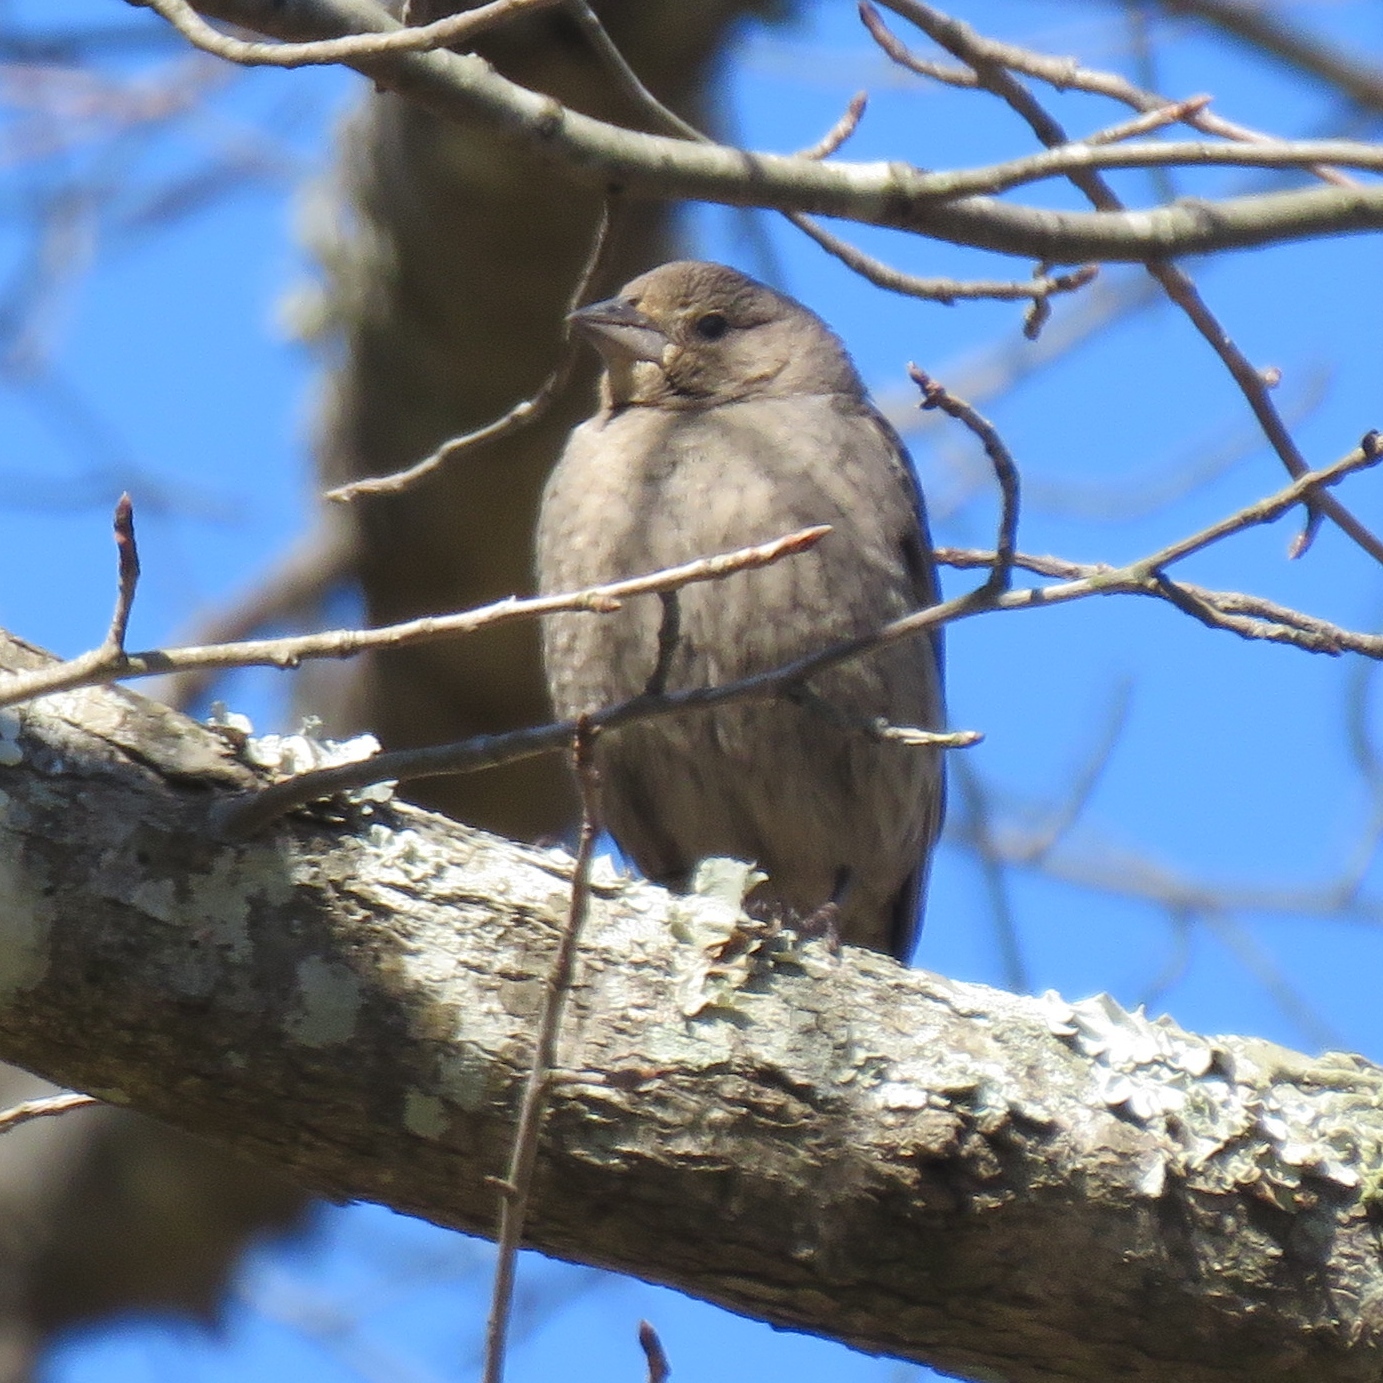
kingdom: Animalia
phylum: Chordata
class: Aves
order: Passeriformes
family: Icteridae
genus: Molothrus
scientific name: Molothrus ater
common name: Brown-headed cowbird
